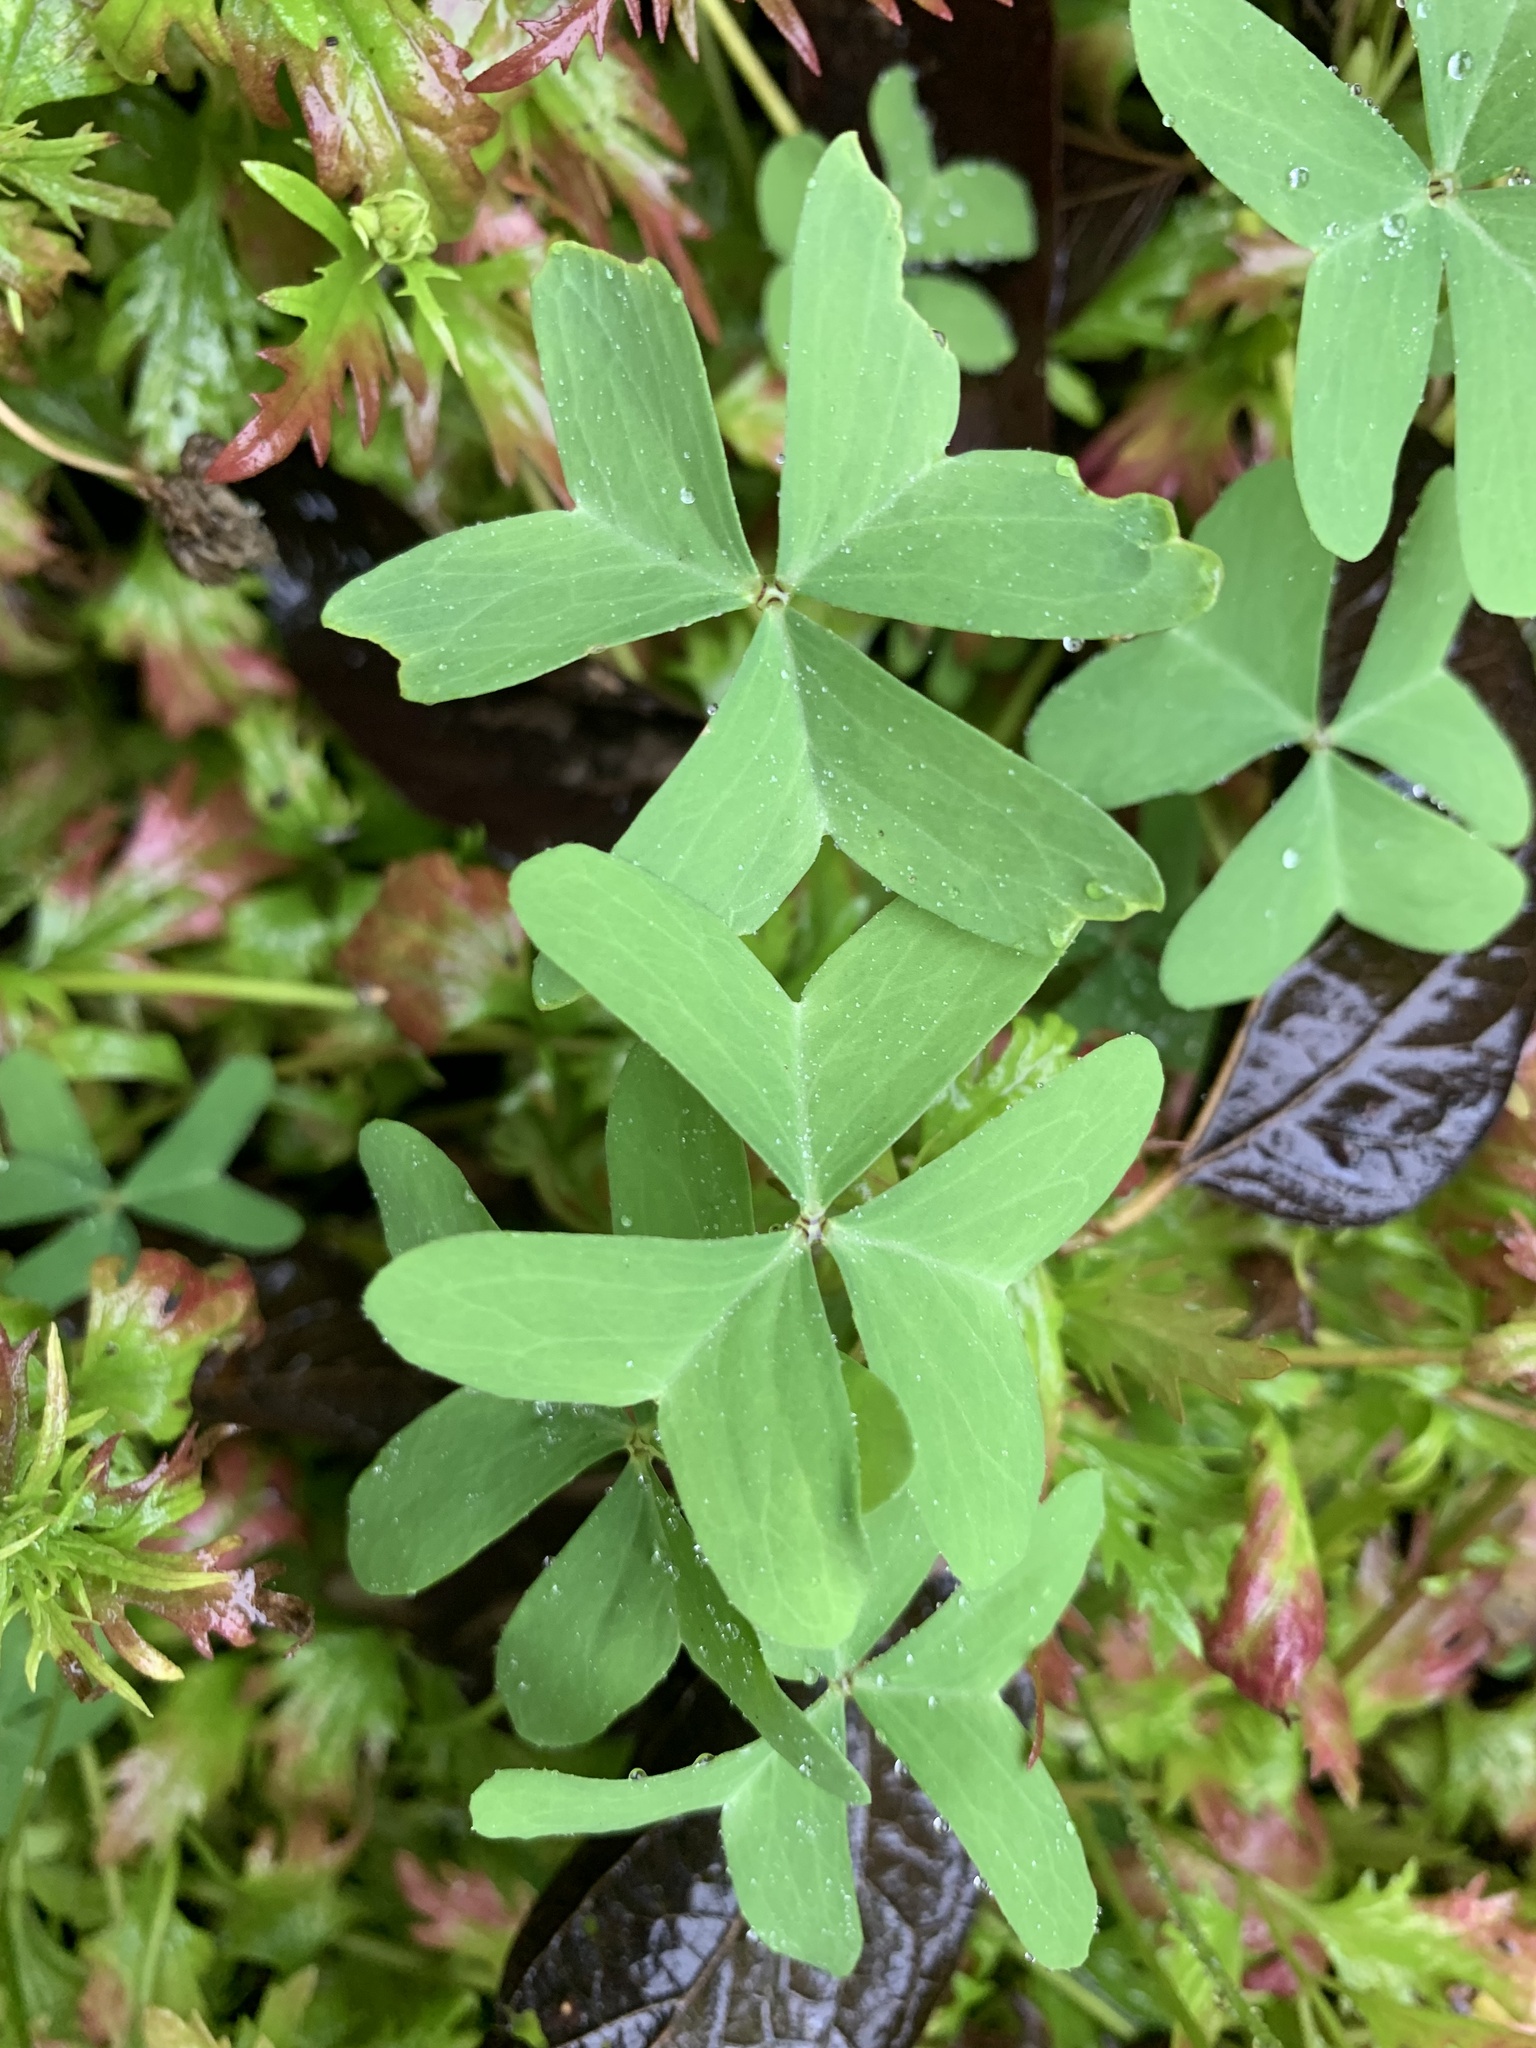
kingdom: Plantae
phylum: Tracheophyta
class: Magnoliopsida
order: Oxalidales
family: Oxalidaceae
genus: Oxalis
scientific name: Oxalis drummondii
